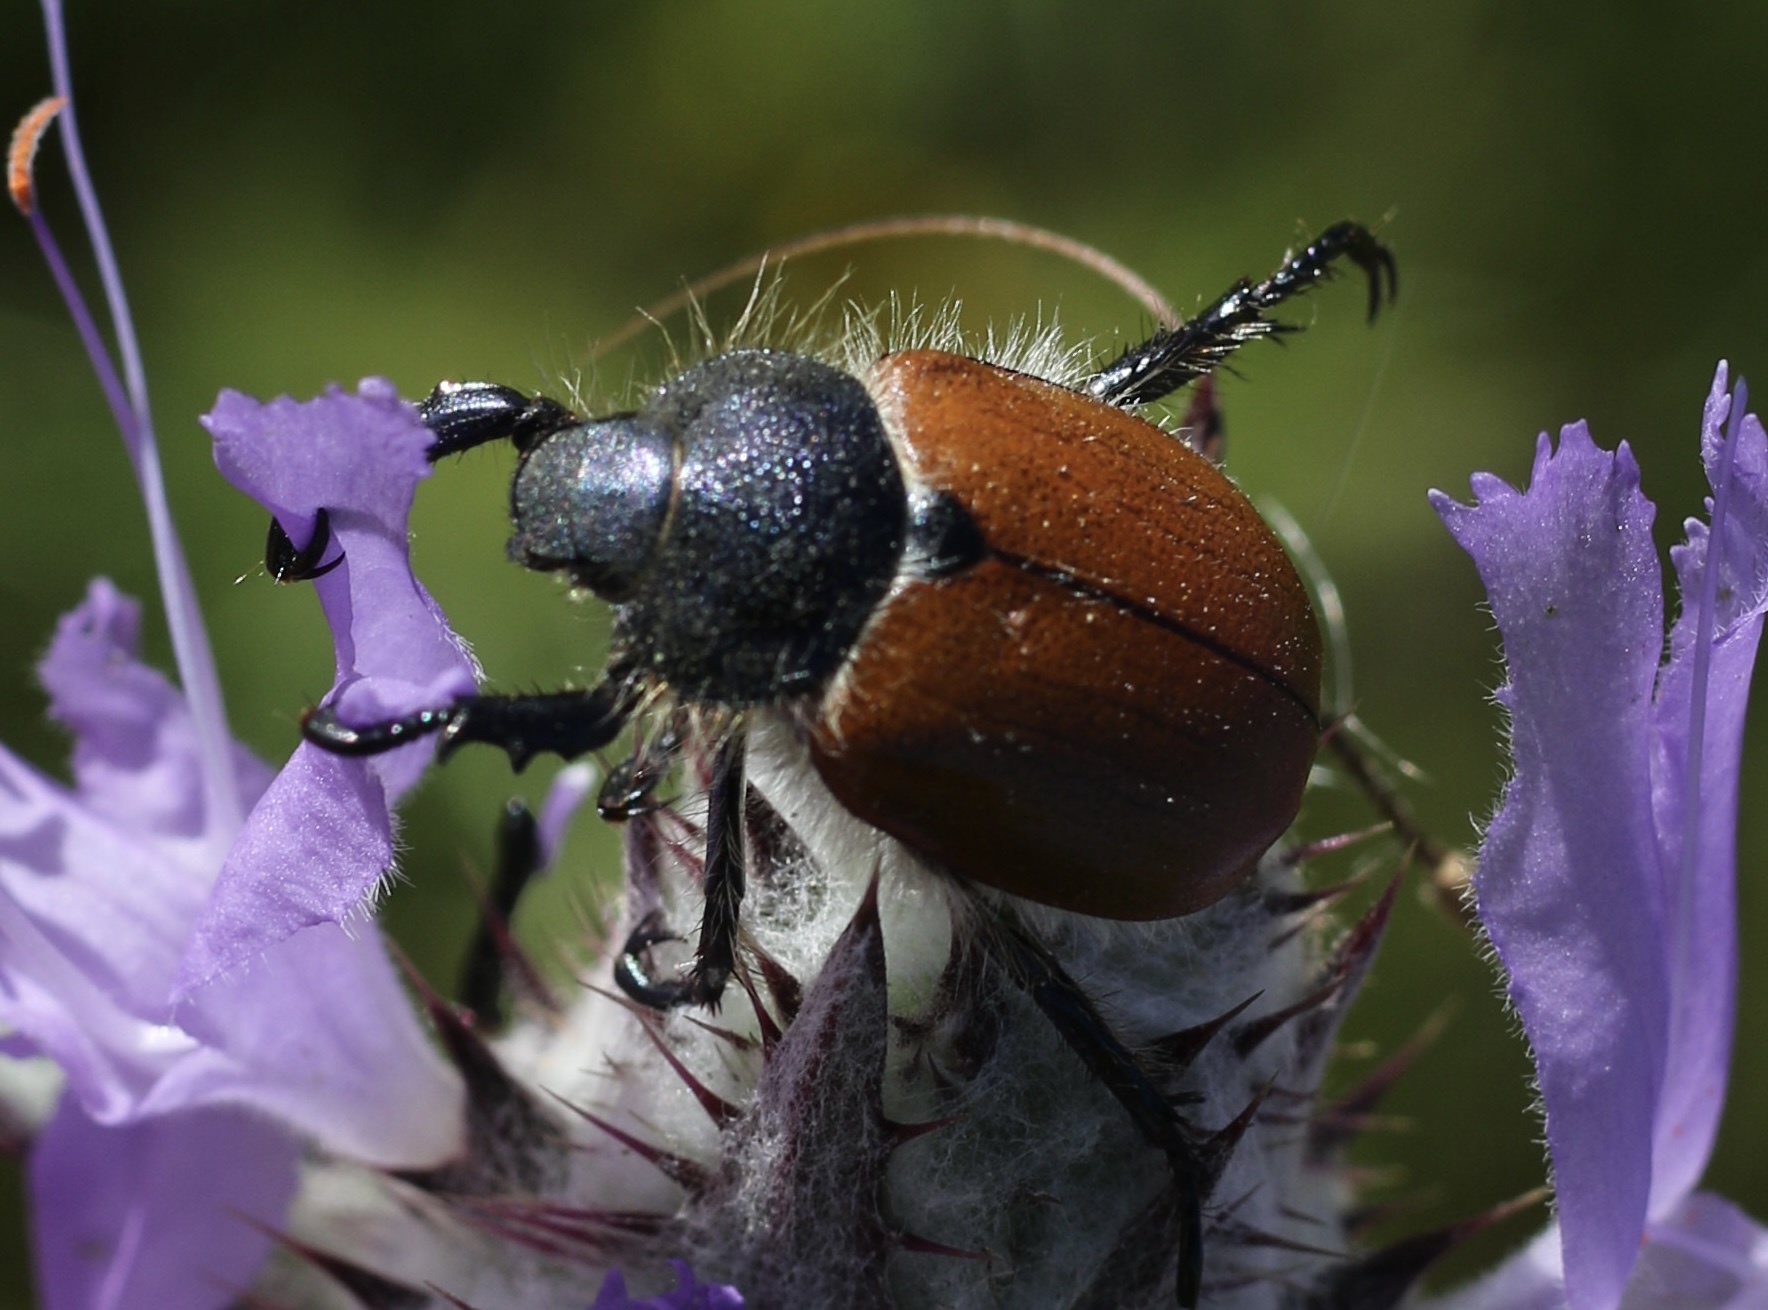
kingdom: Animalia
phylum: Arthropoda
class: Insecta
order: Coleoptera
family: Scarabaeidae
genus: Paracotalpa
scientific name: Paracotalpa ursina
